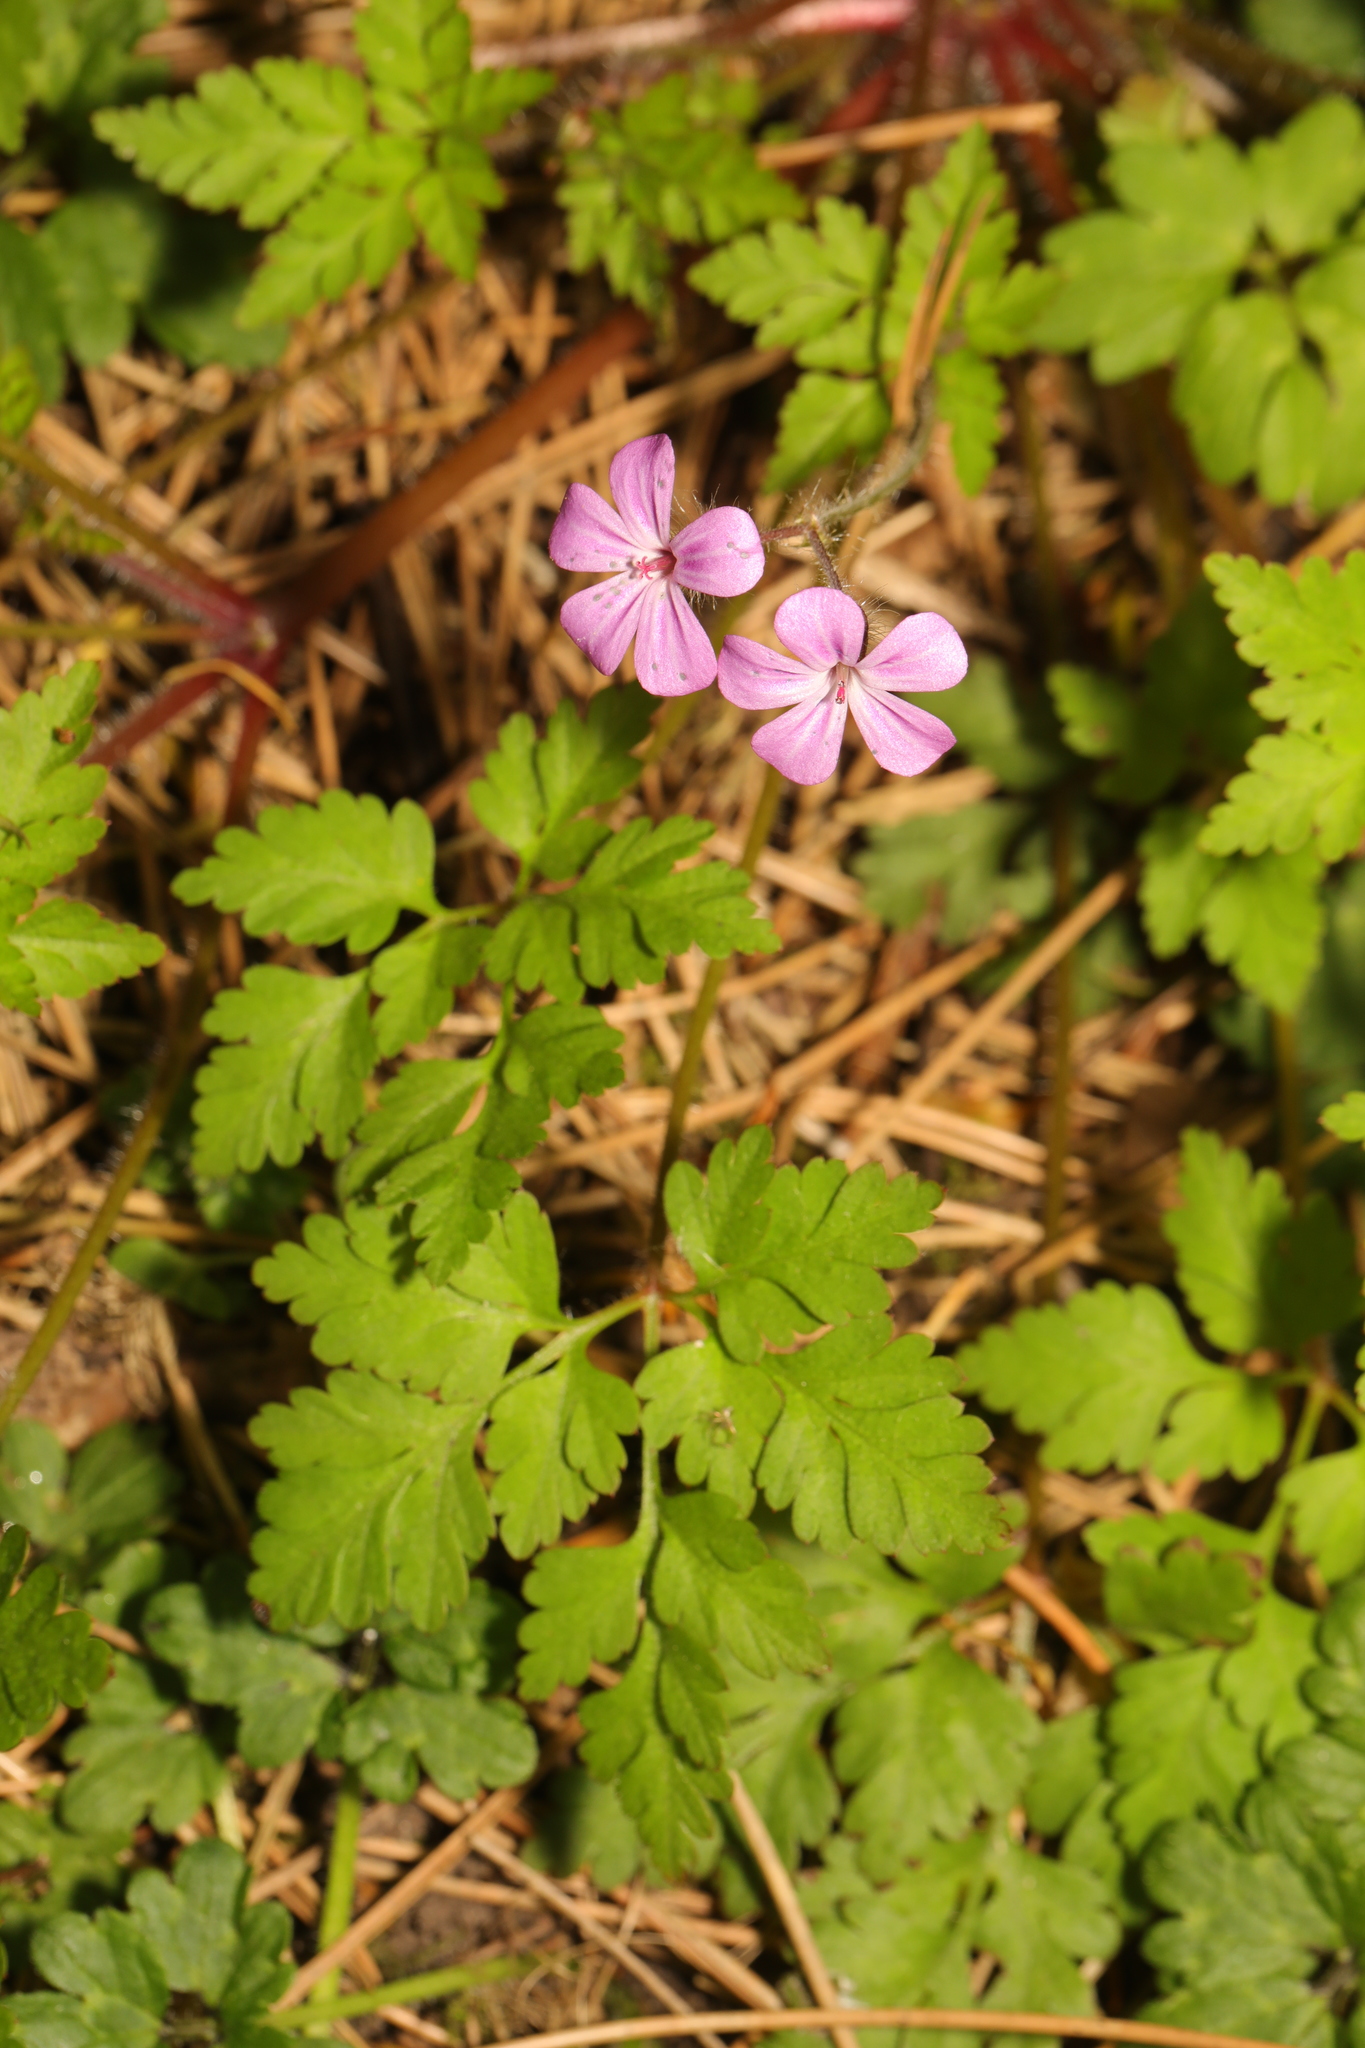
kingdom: Plantae
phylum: Tracheophyta
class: Magnoliopsida
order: Geraniales
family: Geraniaceae
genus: Geranium
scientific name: Geranium robertianum
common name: Herb-robert
